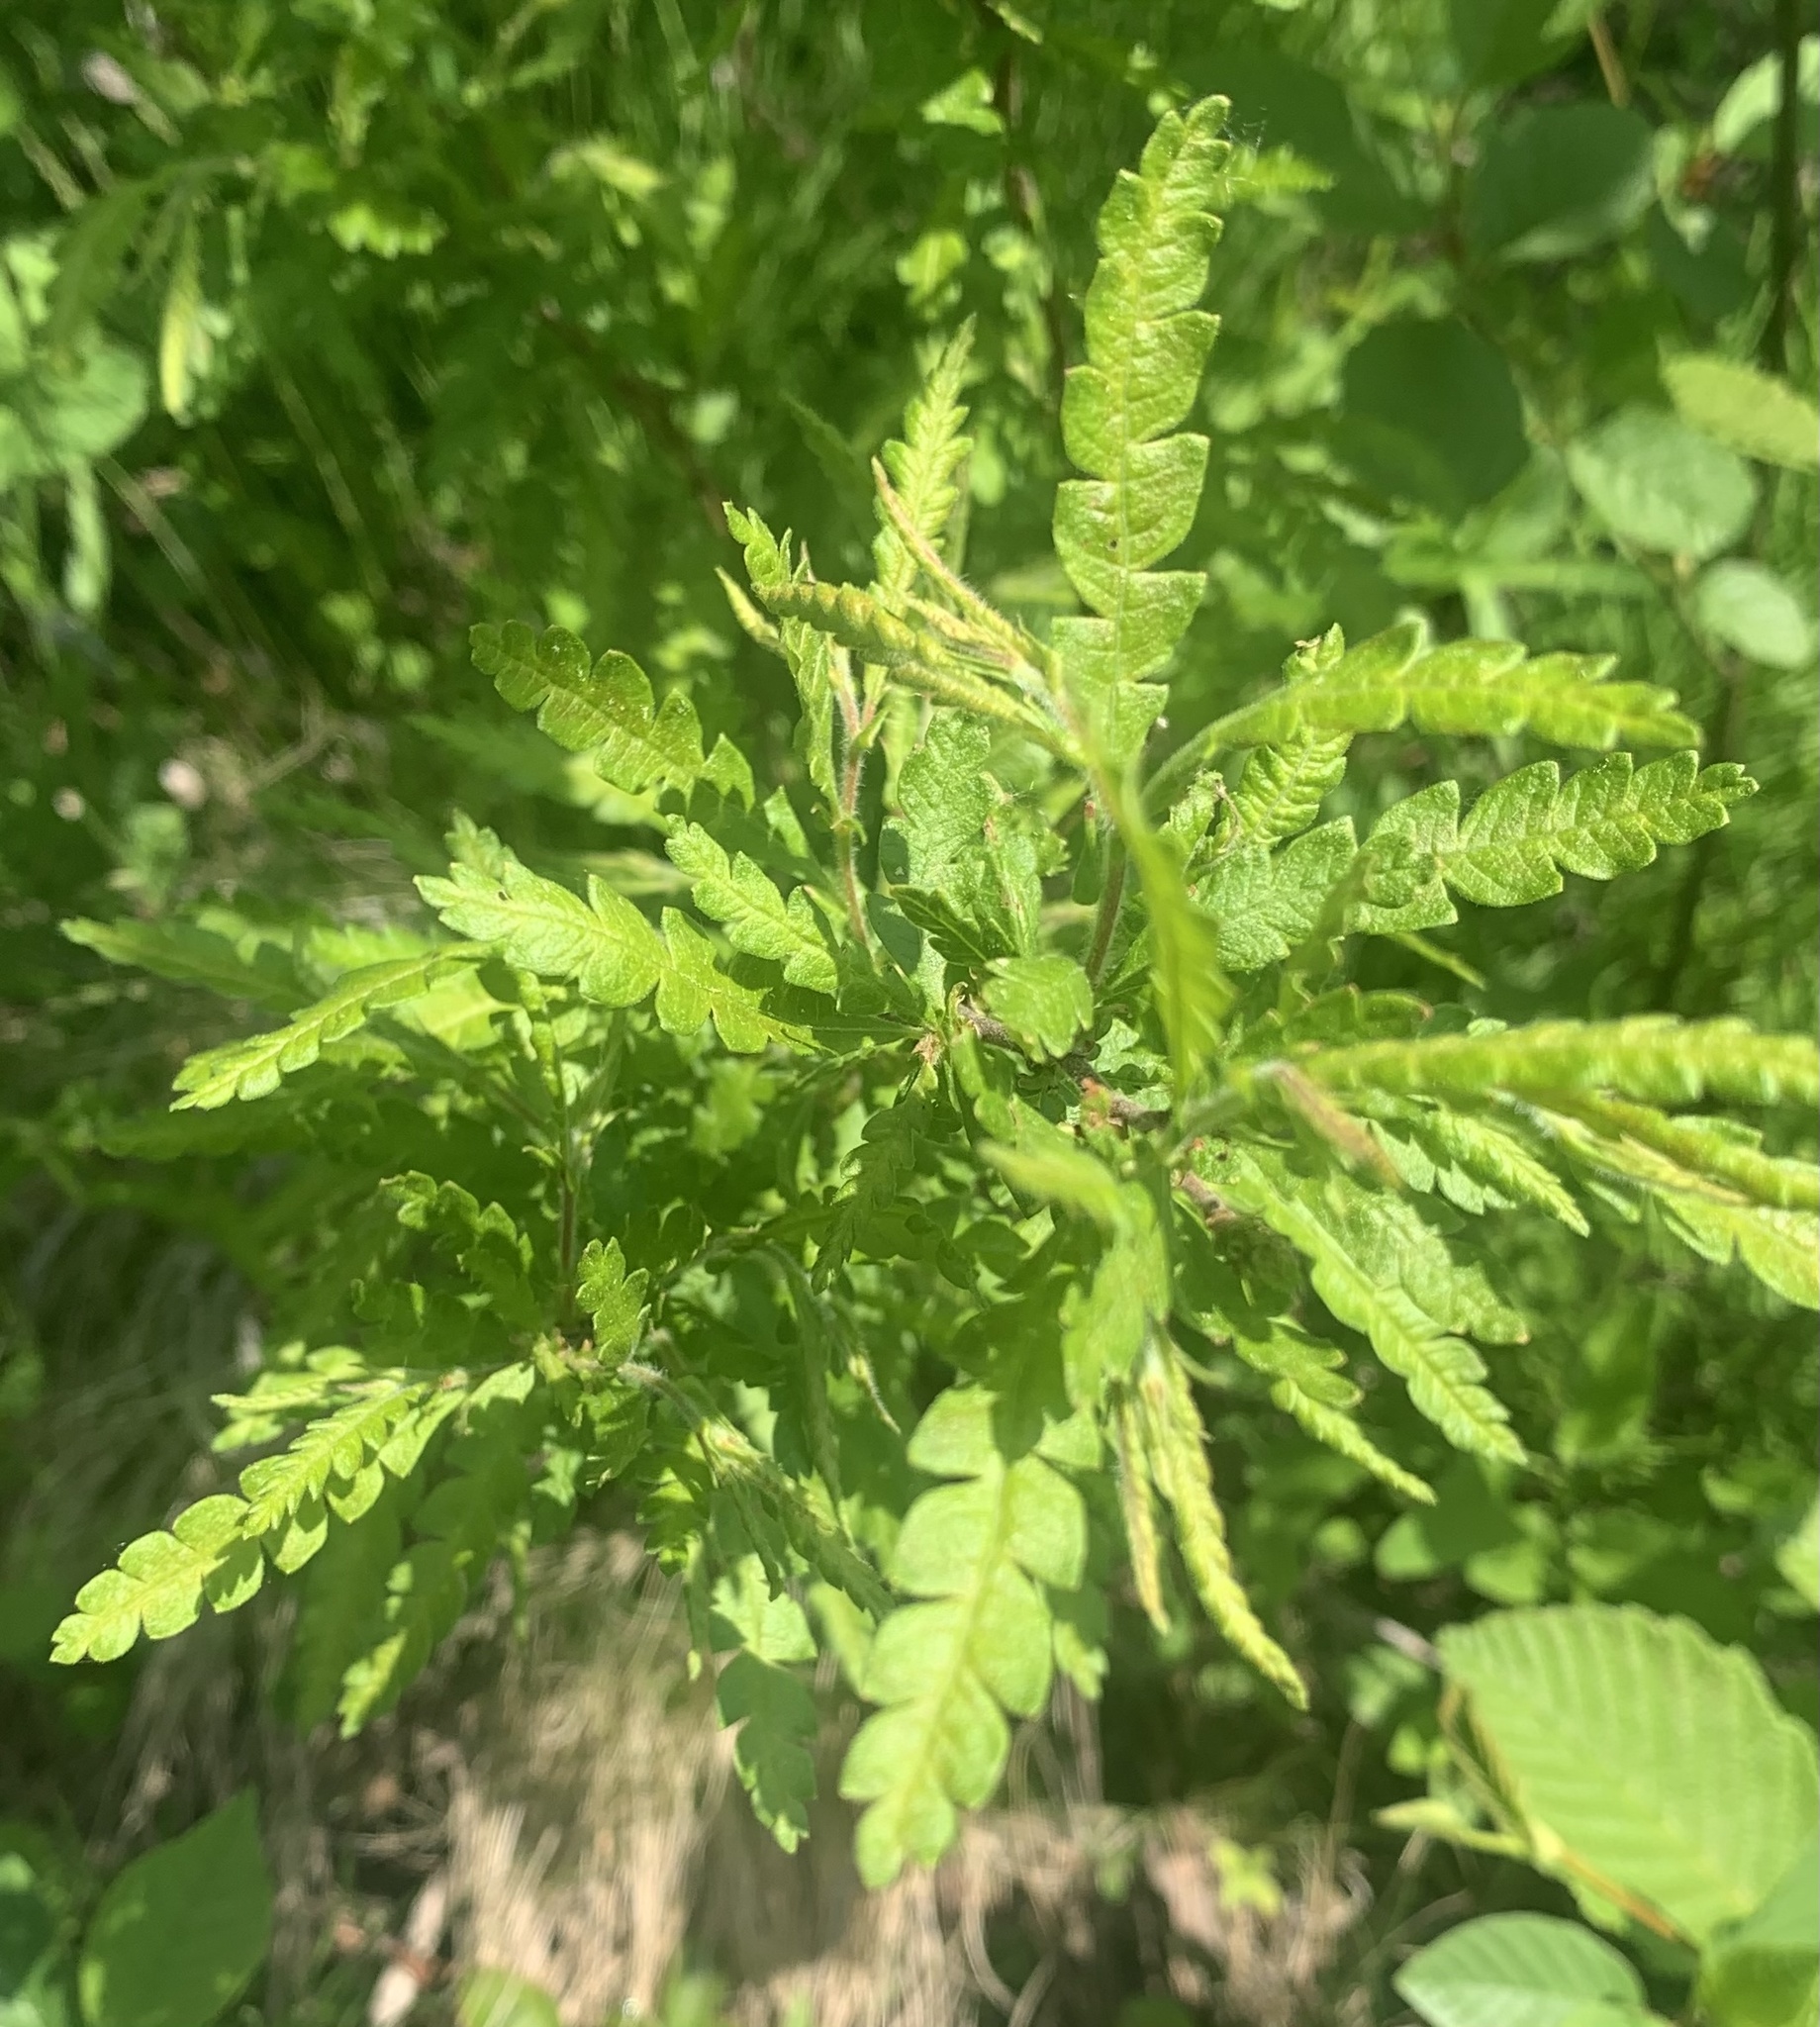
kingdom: Plantae
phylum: Tracheophyta
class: Magnoliopsida
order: Fagales
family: Myricaceae
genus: Comptonia
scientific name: Comptonia peregrina
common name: Sweet-fern
